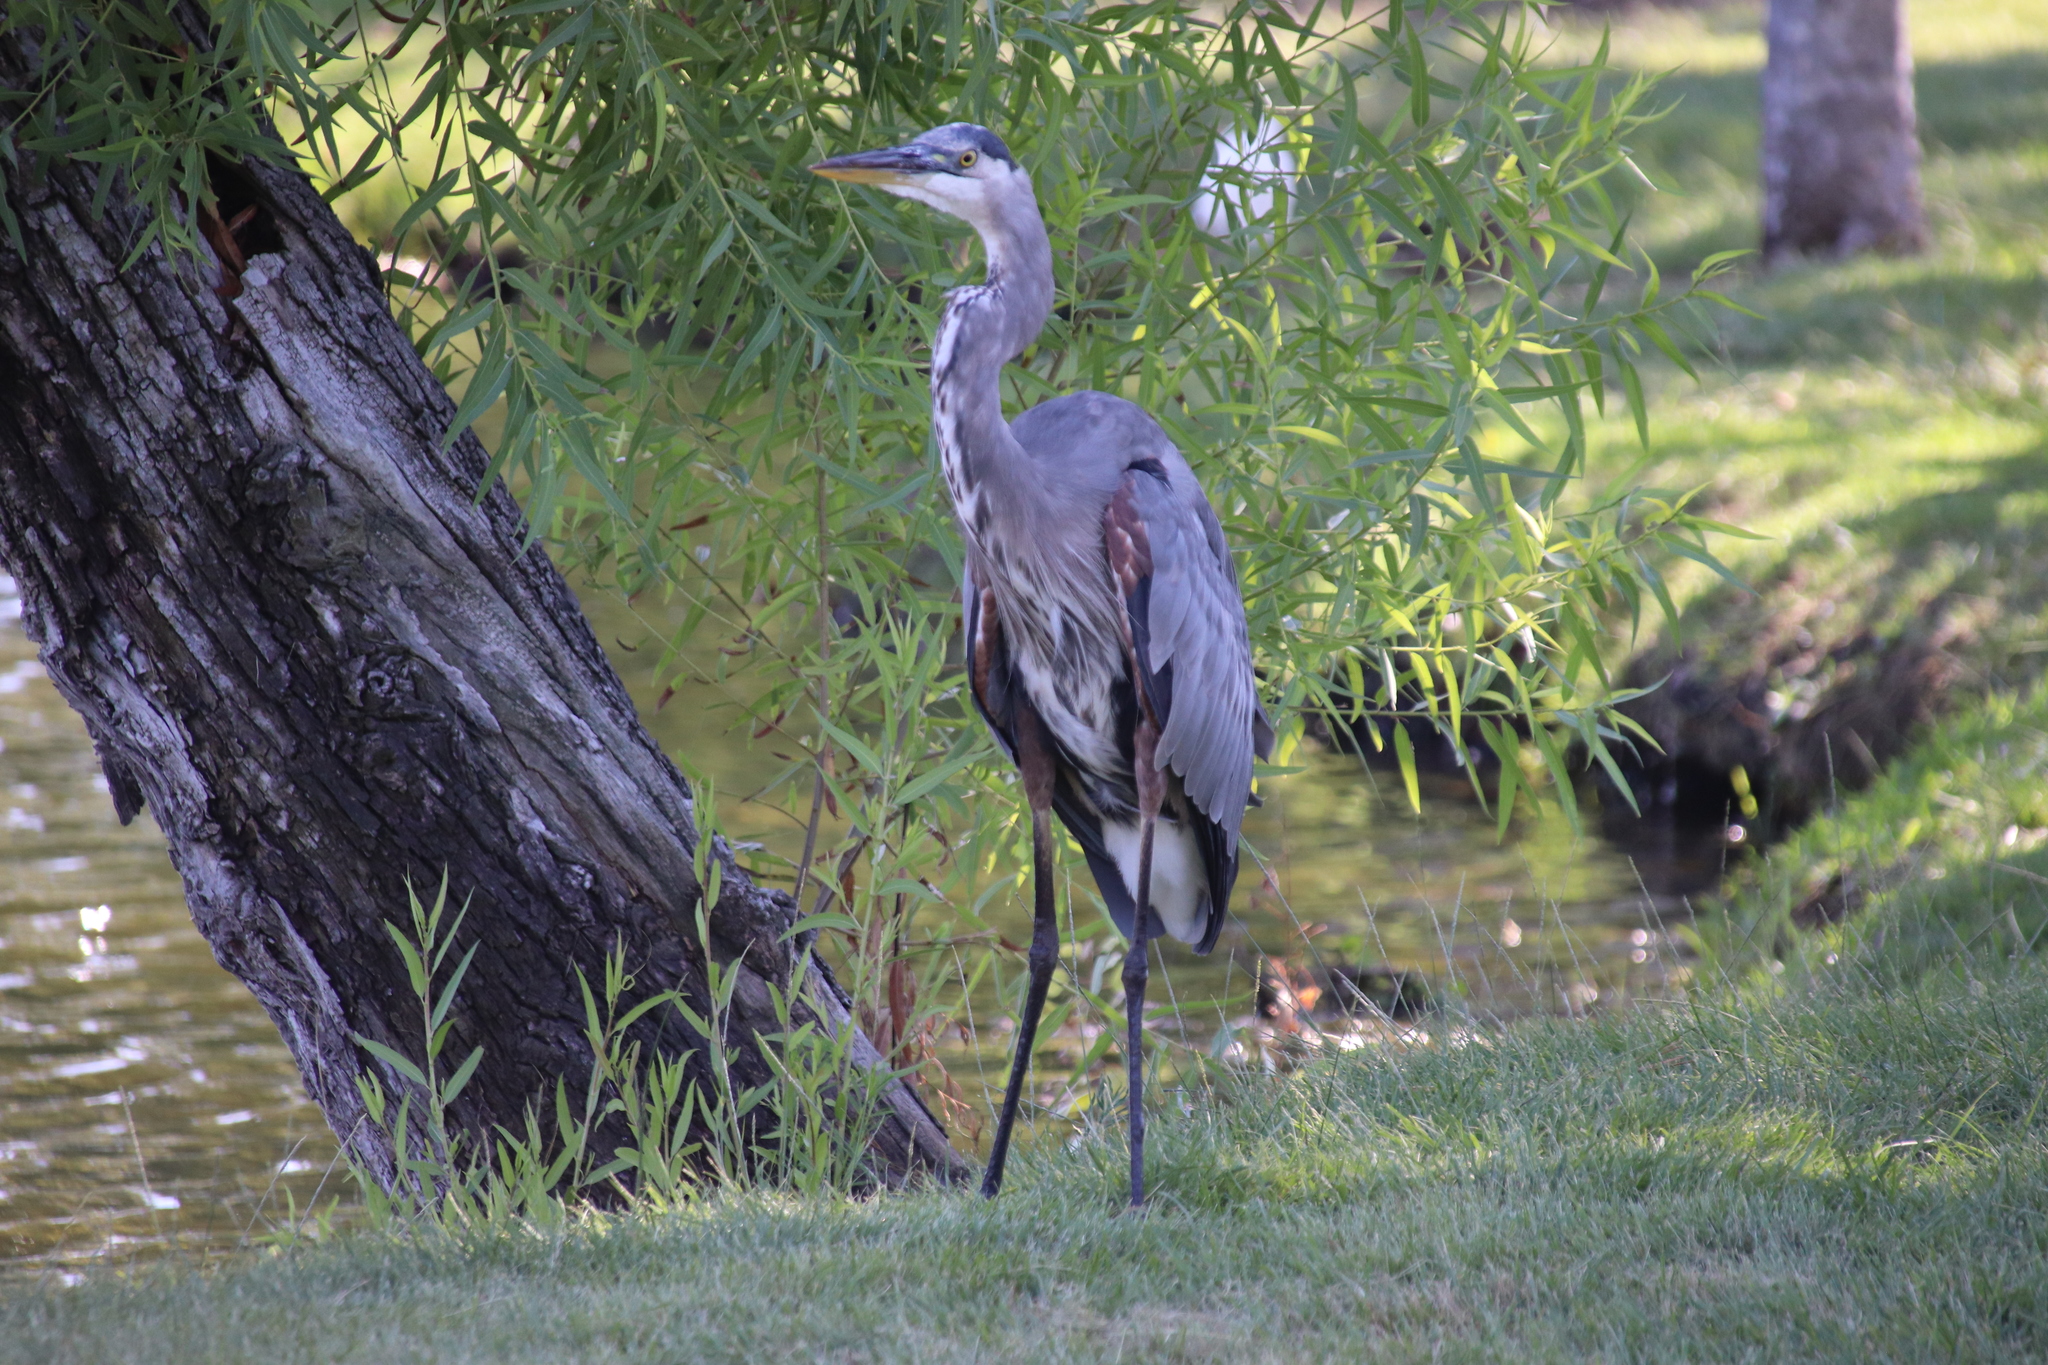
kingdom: Animalia
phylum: Chordata
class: Aves
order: Pelecaniformes
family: Ardeidae
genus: Ardea
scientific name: Ardea herodias
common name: Great blue heron
